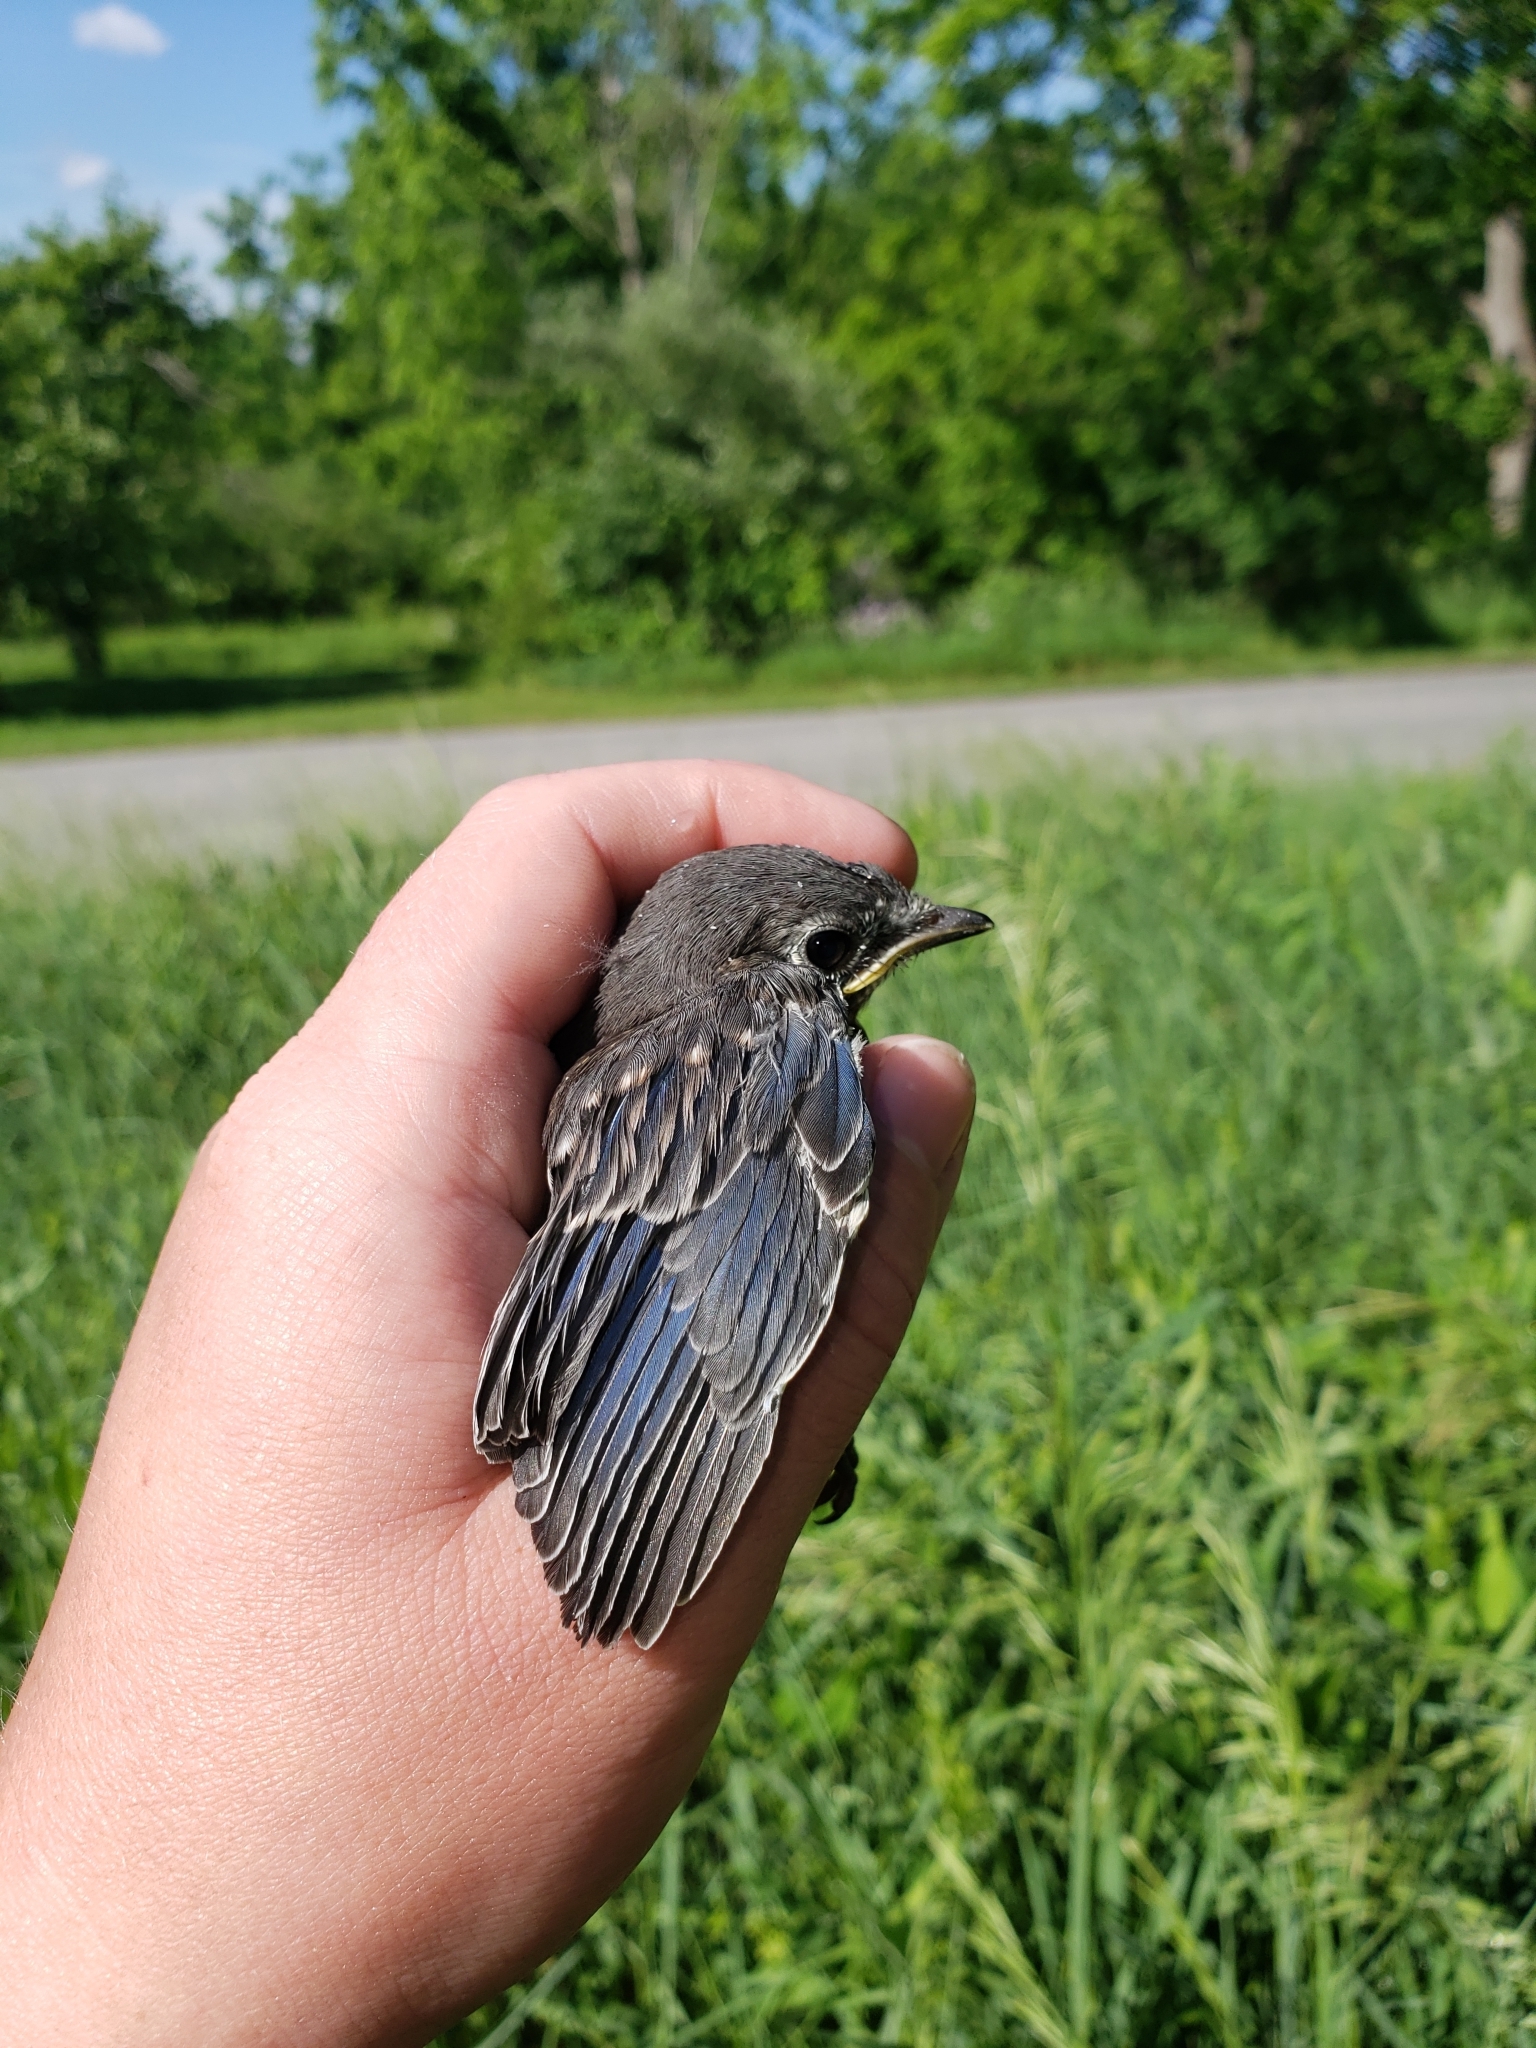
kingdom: Animalia
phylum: Chordata
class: Aves
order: Passeriformes
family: Turdidae
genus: Sialia
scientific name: Sialia sialis
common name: Eastern bluebird
